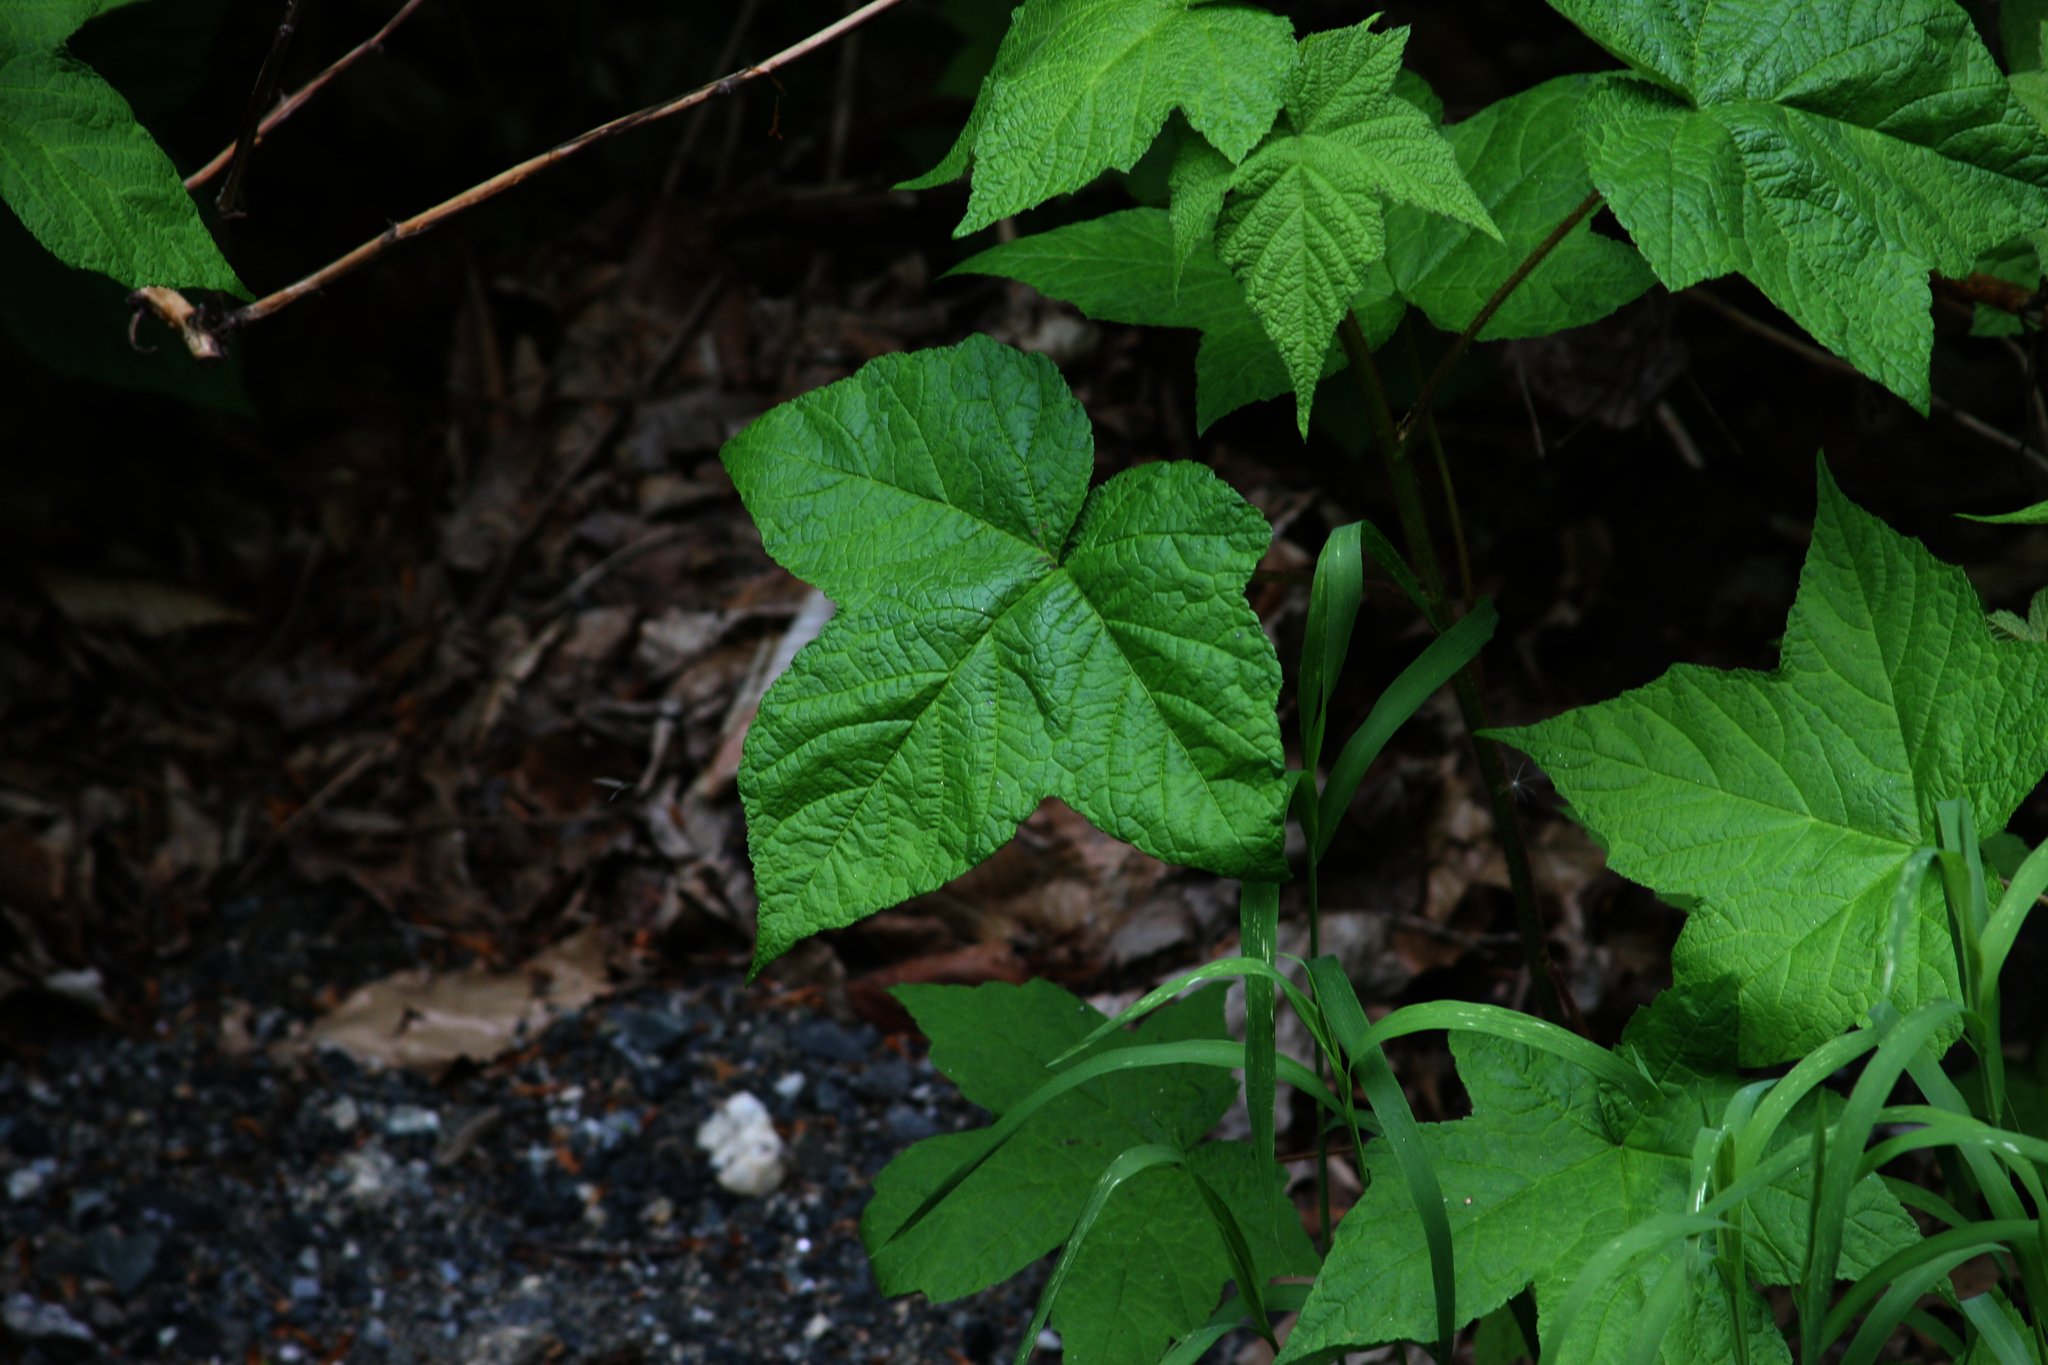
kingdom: Plantae
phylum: Tracheophyta
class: Magnoliopsida
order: Rosales
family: Rosaceae
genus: Rubus
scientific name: Rubus odoratus
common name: Purple-flowered raspberry
